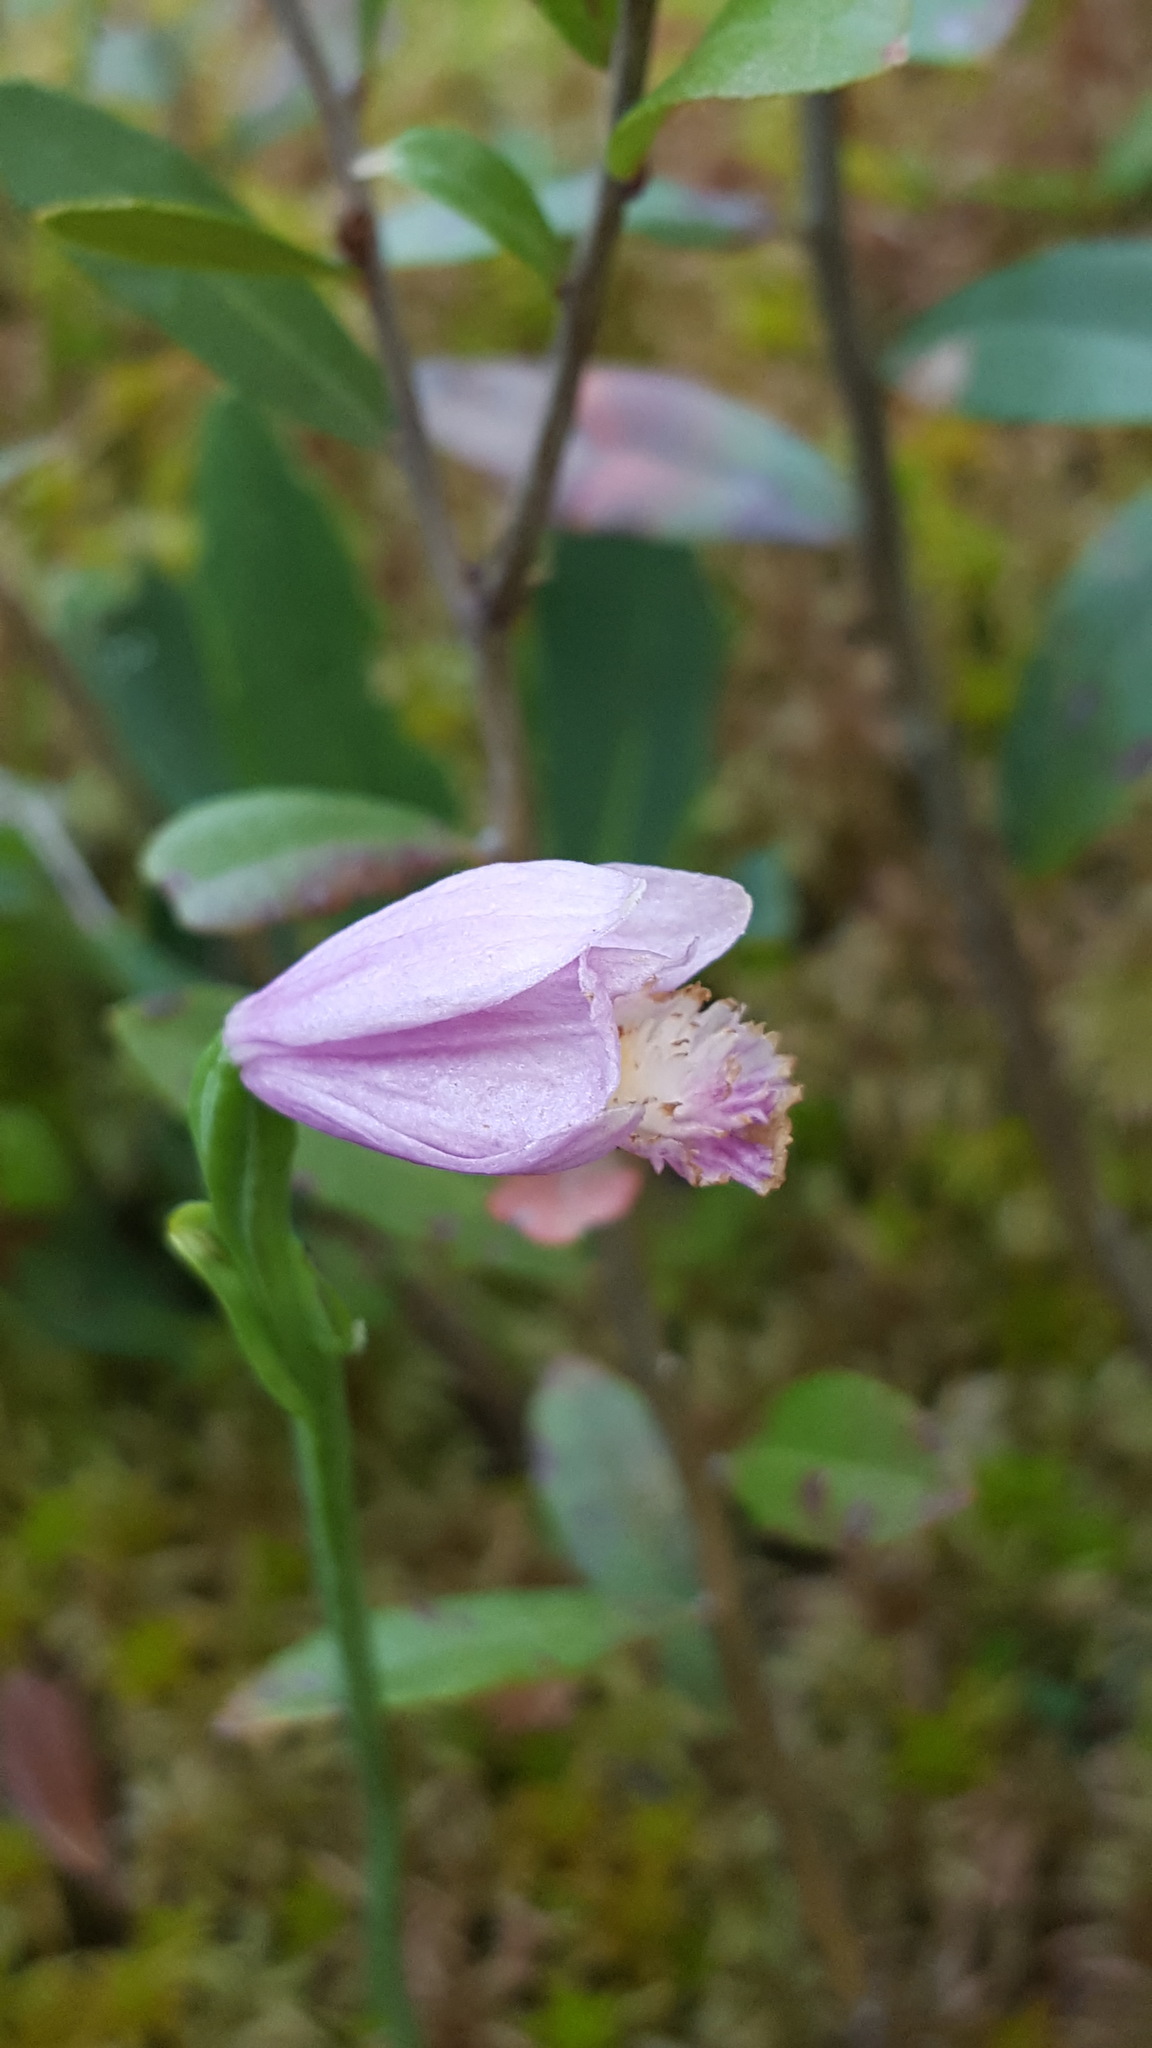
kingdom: Plantae
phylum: Tracheophyta
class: Liliopsida
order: Asparagales
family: Orchidaceae
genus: Pogonia
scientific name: Pogonia ophioglossoides
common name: Rose pogonia
